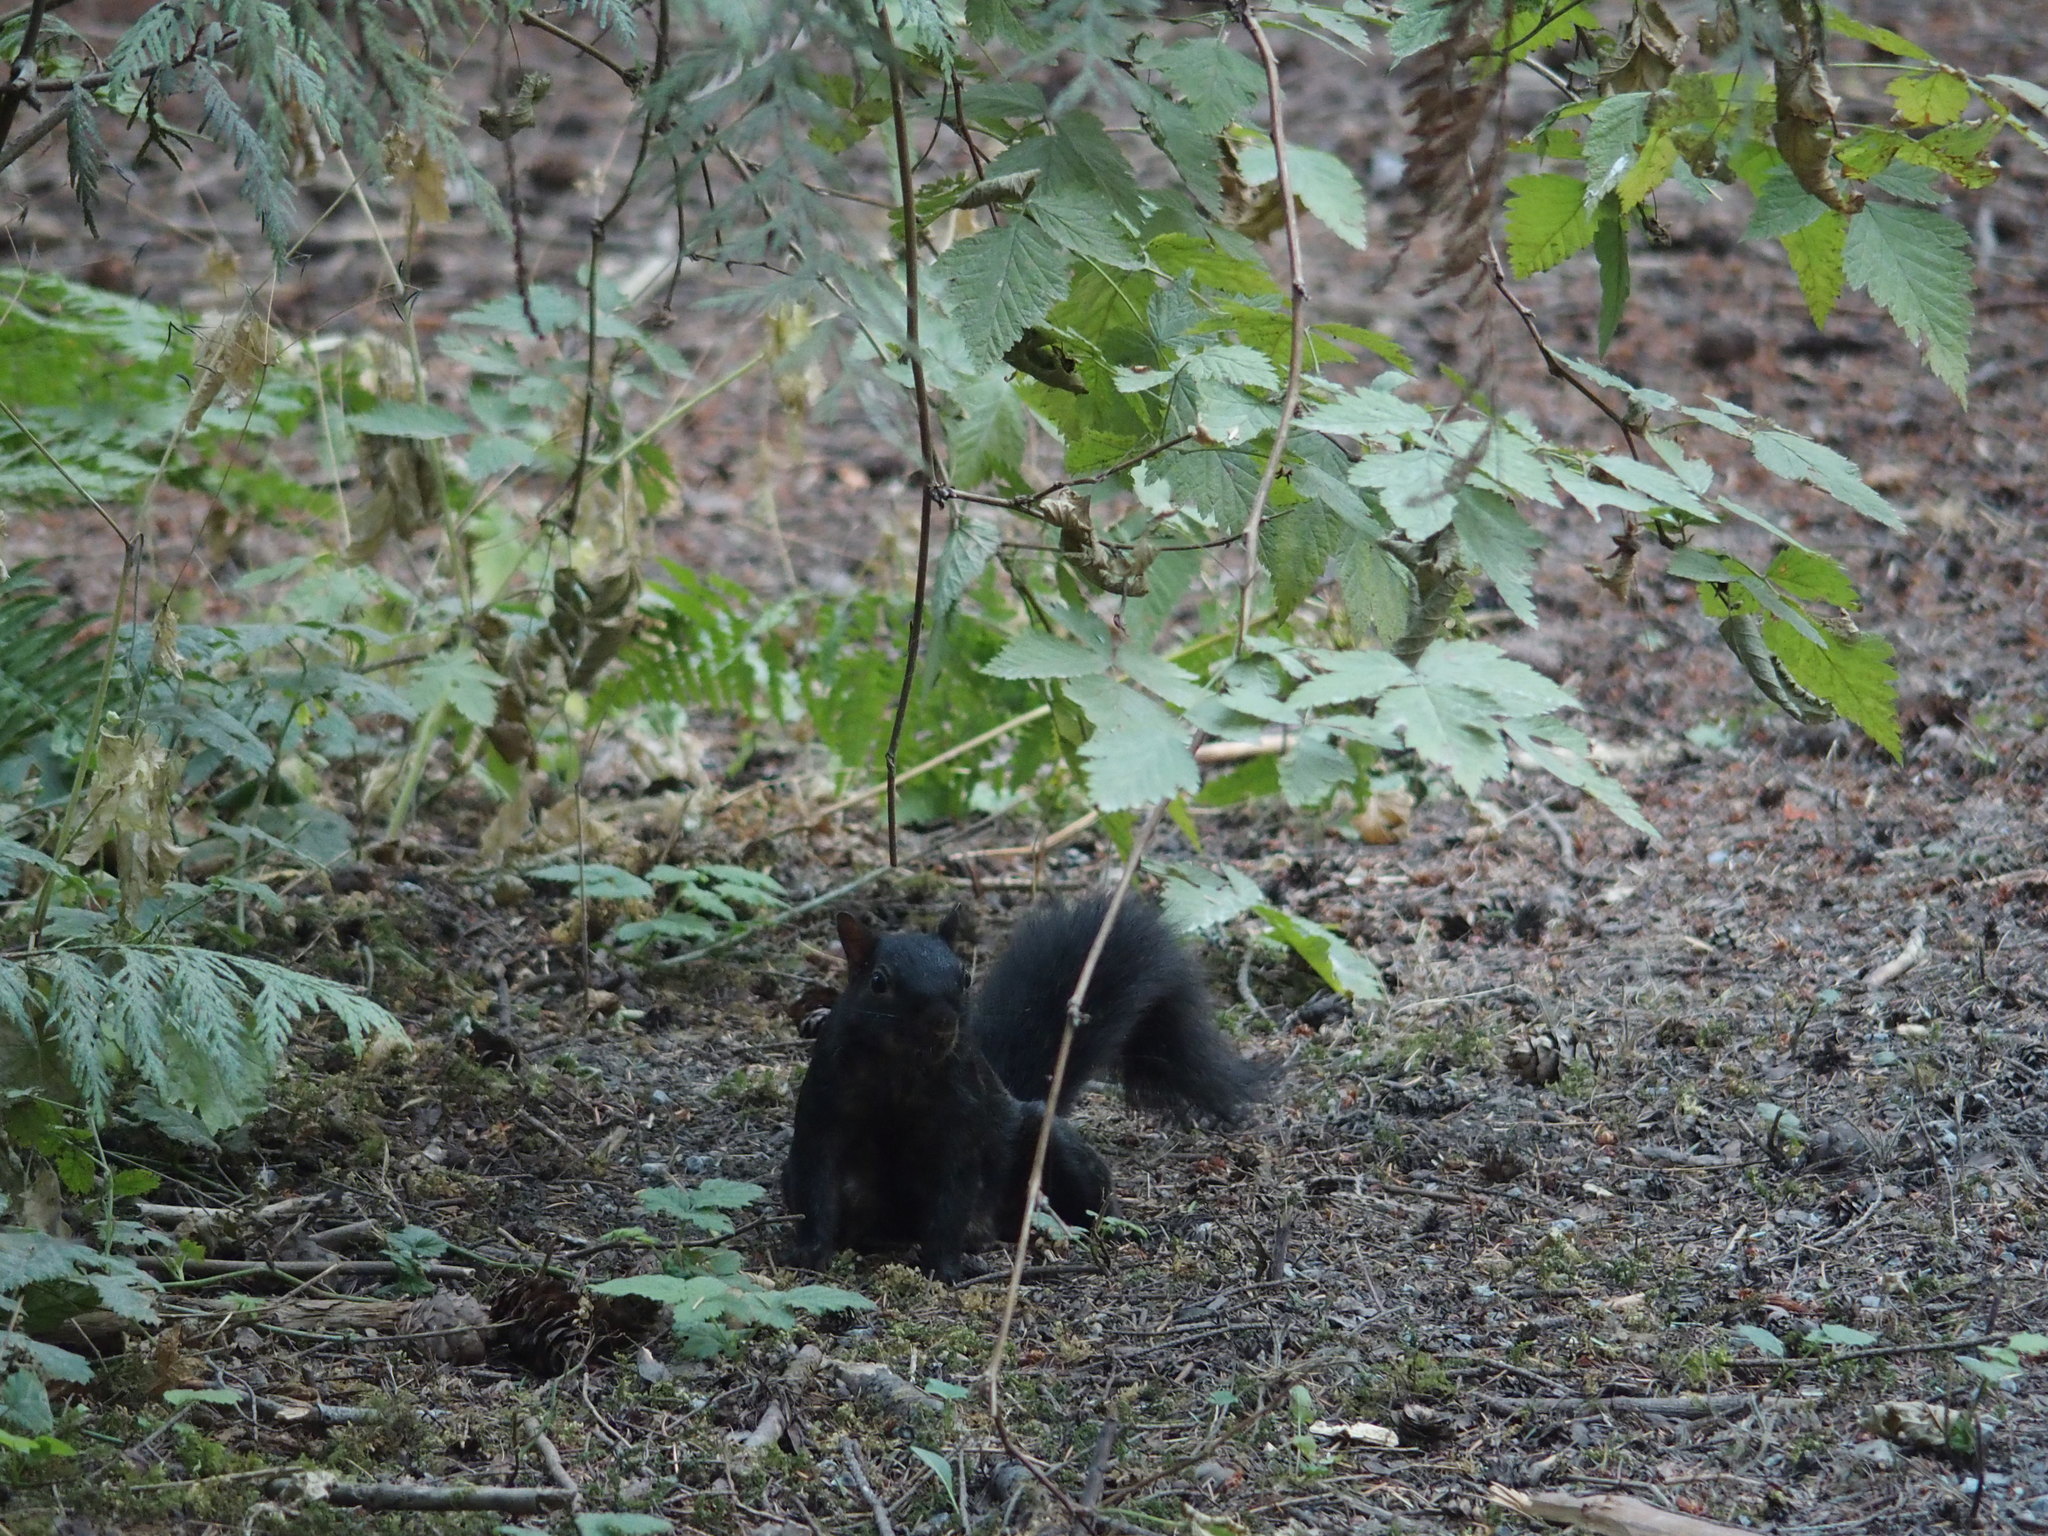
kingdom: Animalia
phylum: Chordata
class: Mammalia
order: Rodentia
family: Sciuridae
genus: Sciurus
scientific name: Sciurus carolinensis
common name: Eastern gray squirrel
